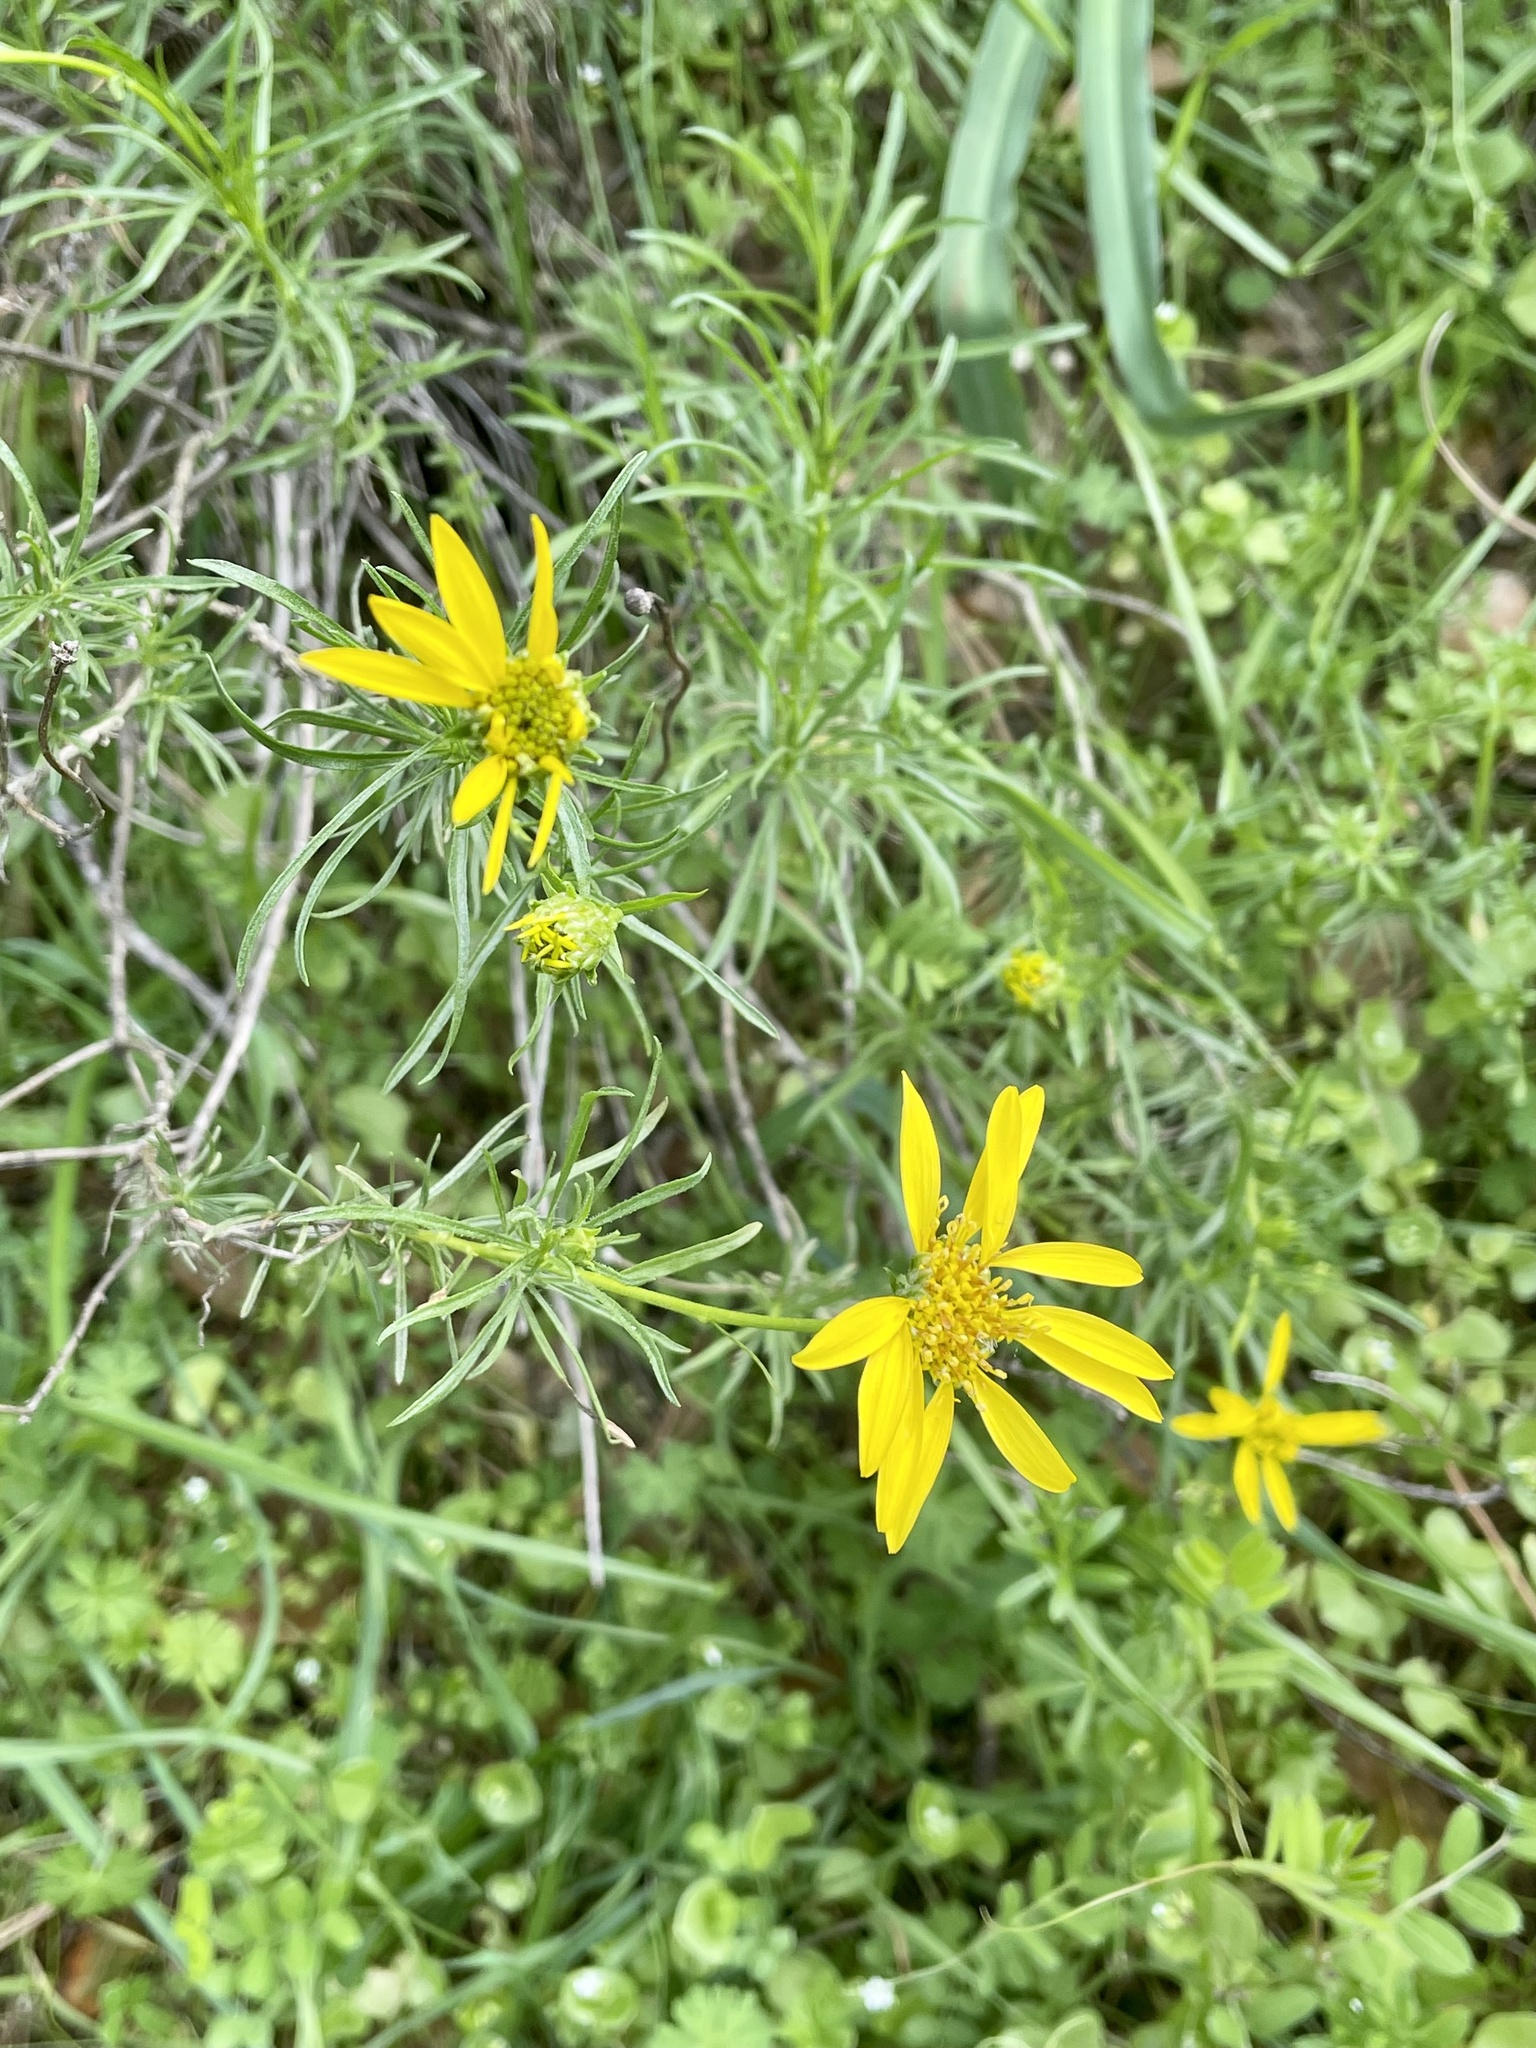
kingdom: Plantae
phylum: Tracheophyta
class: Magnoliopsida
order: Asterales
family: Asteraceae
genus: Ericameria
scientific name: Ericameria linearifolia
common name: Interior goldenbush
